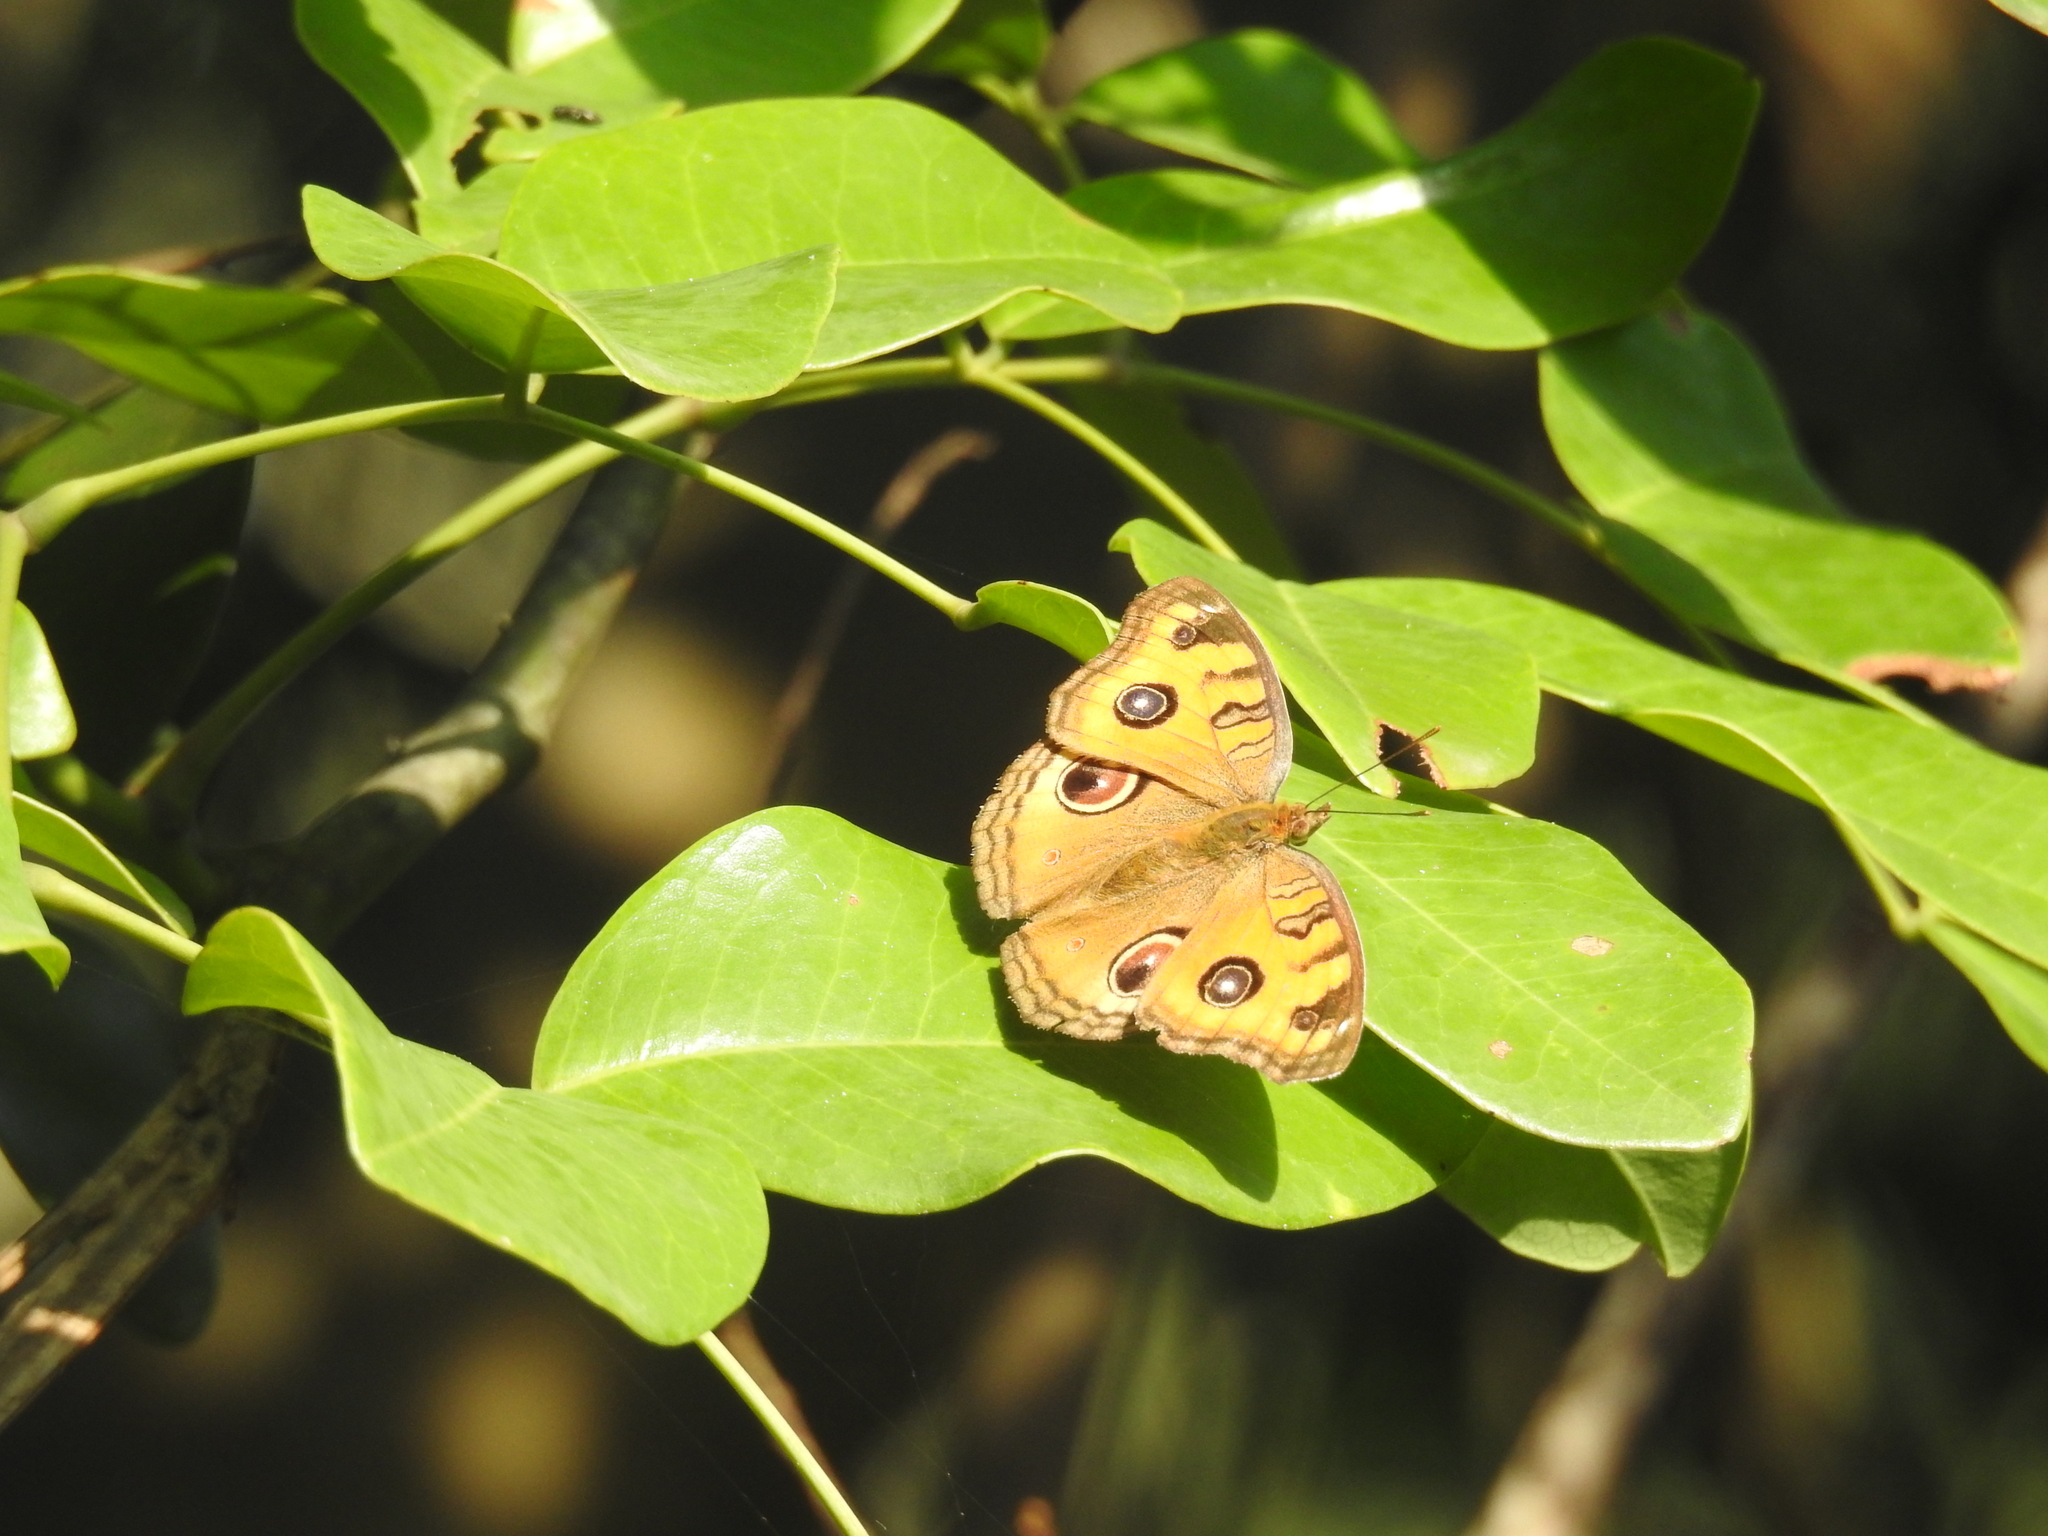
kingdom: Animalia
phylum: Arthropoda
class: Insecta
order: Lepidoptera
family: Nymphalidae
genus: Junonia
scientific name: Junonia almana
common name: Peacock pansy
